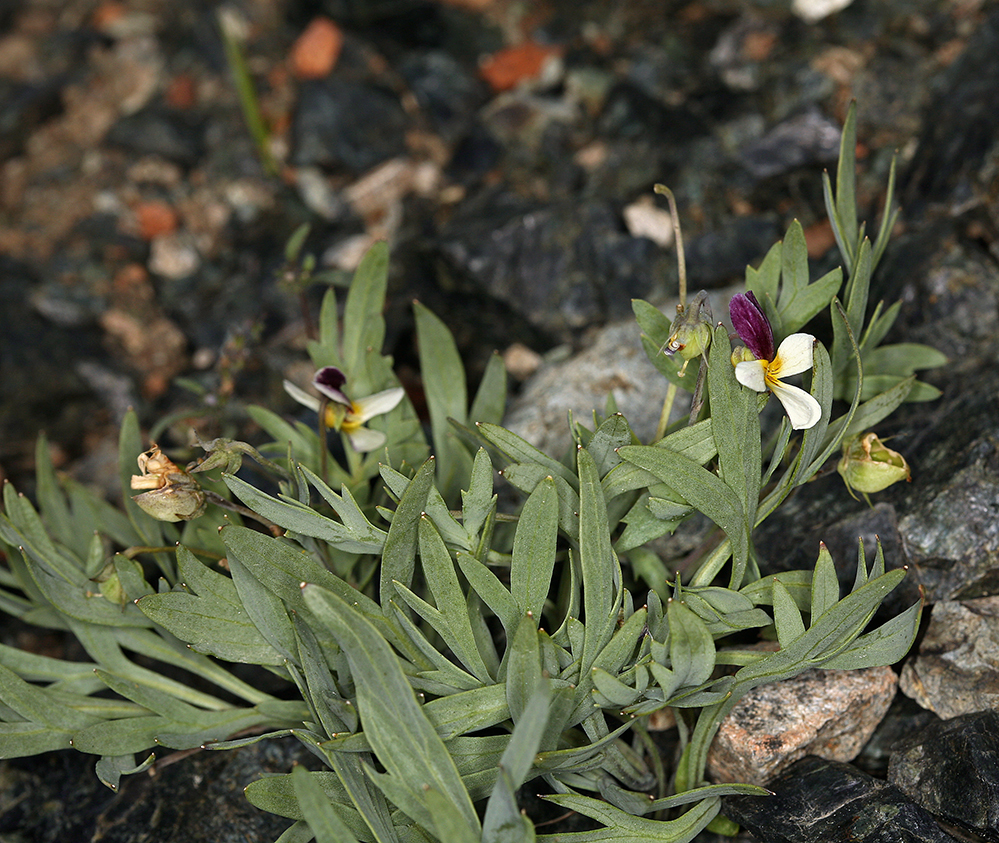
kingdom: Plantae
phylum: Tracheophyta
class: Magnoliopsida
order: Malpighiales
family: Violaceae
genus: Viola
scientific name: Viola hallii
